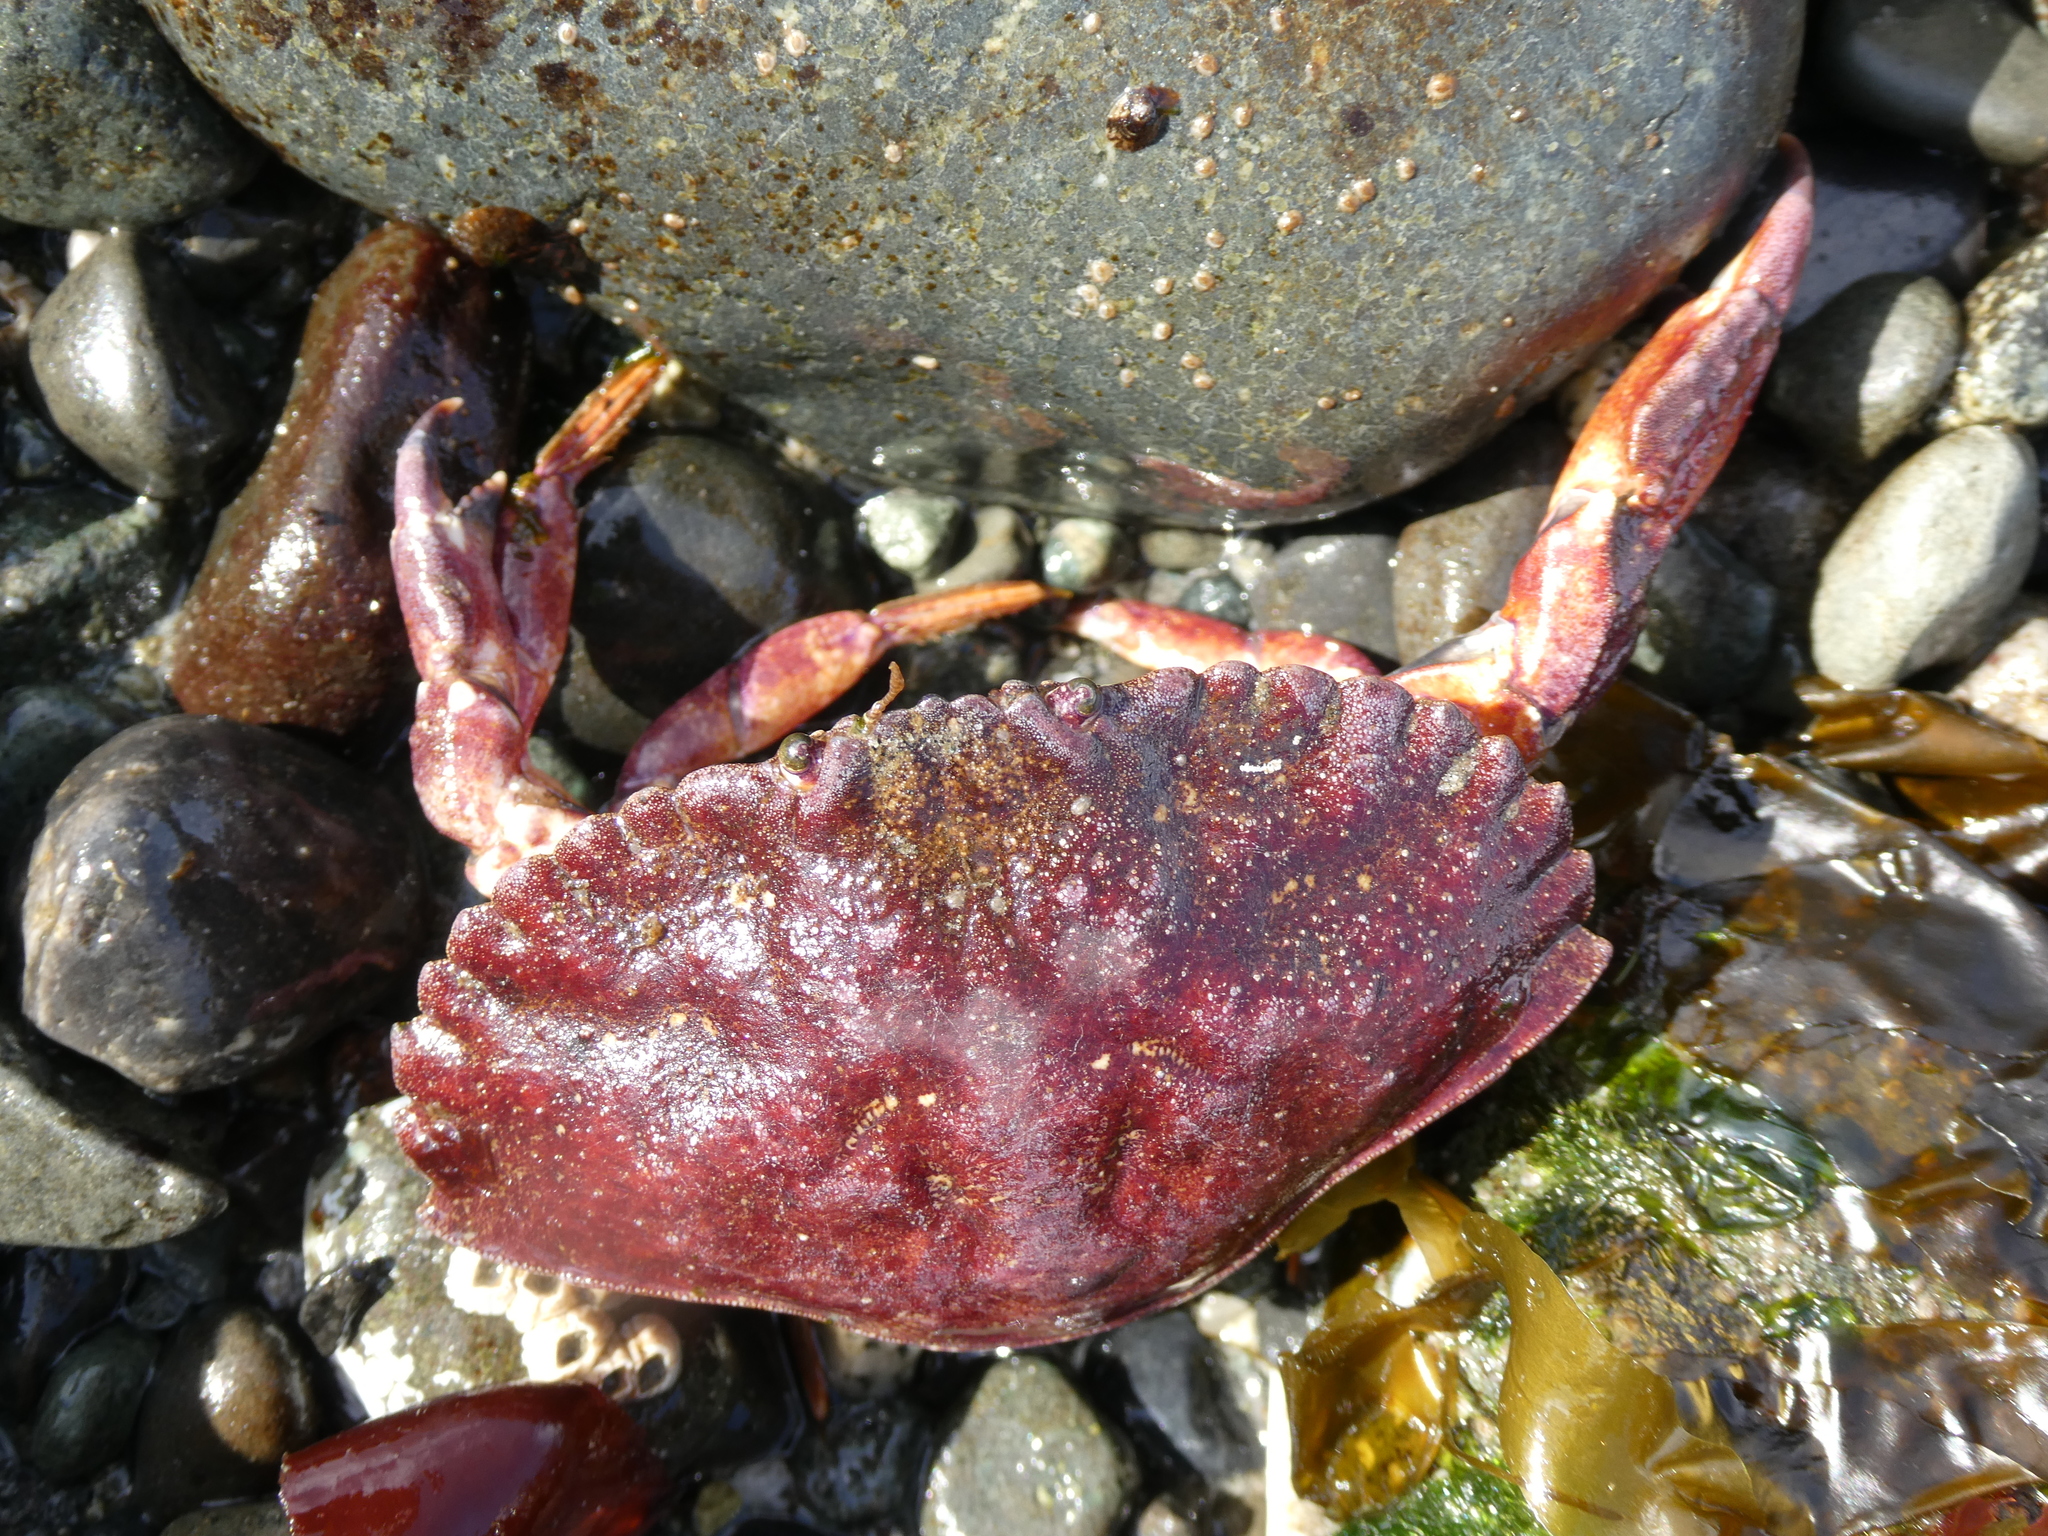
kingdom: Animalia
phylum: Arthropoda
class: Malacostraca
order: Decapoda
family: Cancridae
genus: Cancer
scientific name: Cancer productus
